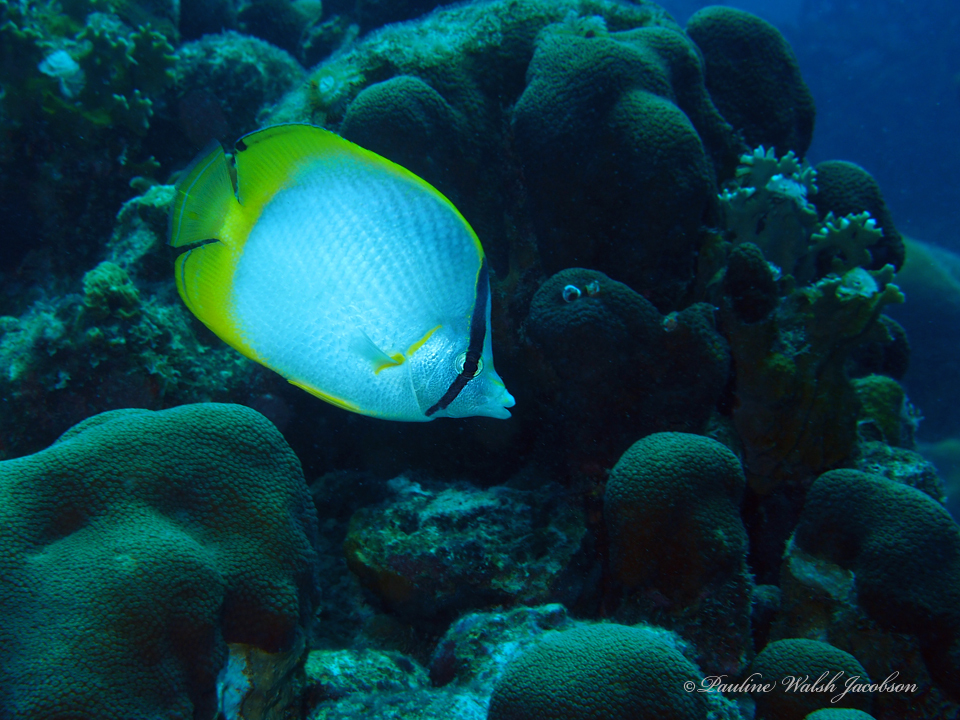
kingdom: Animalia
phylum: Chordata
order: Perciformes
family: Chaetodontidae
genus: Chaetodon
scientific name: Chaetodon ocellatus
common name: Spotfin butterflyfish
